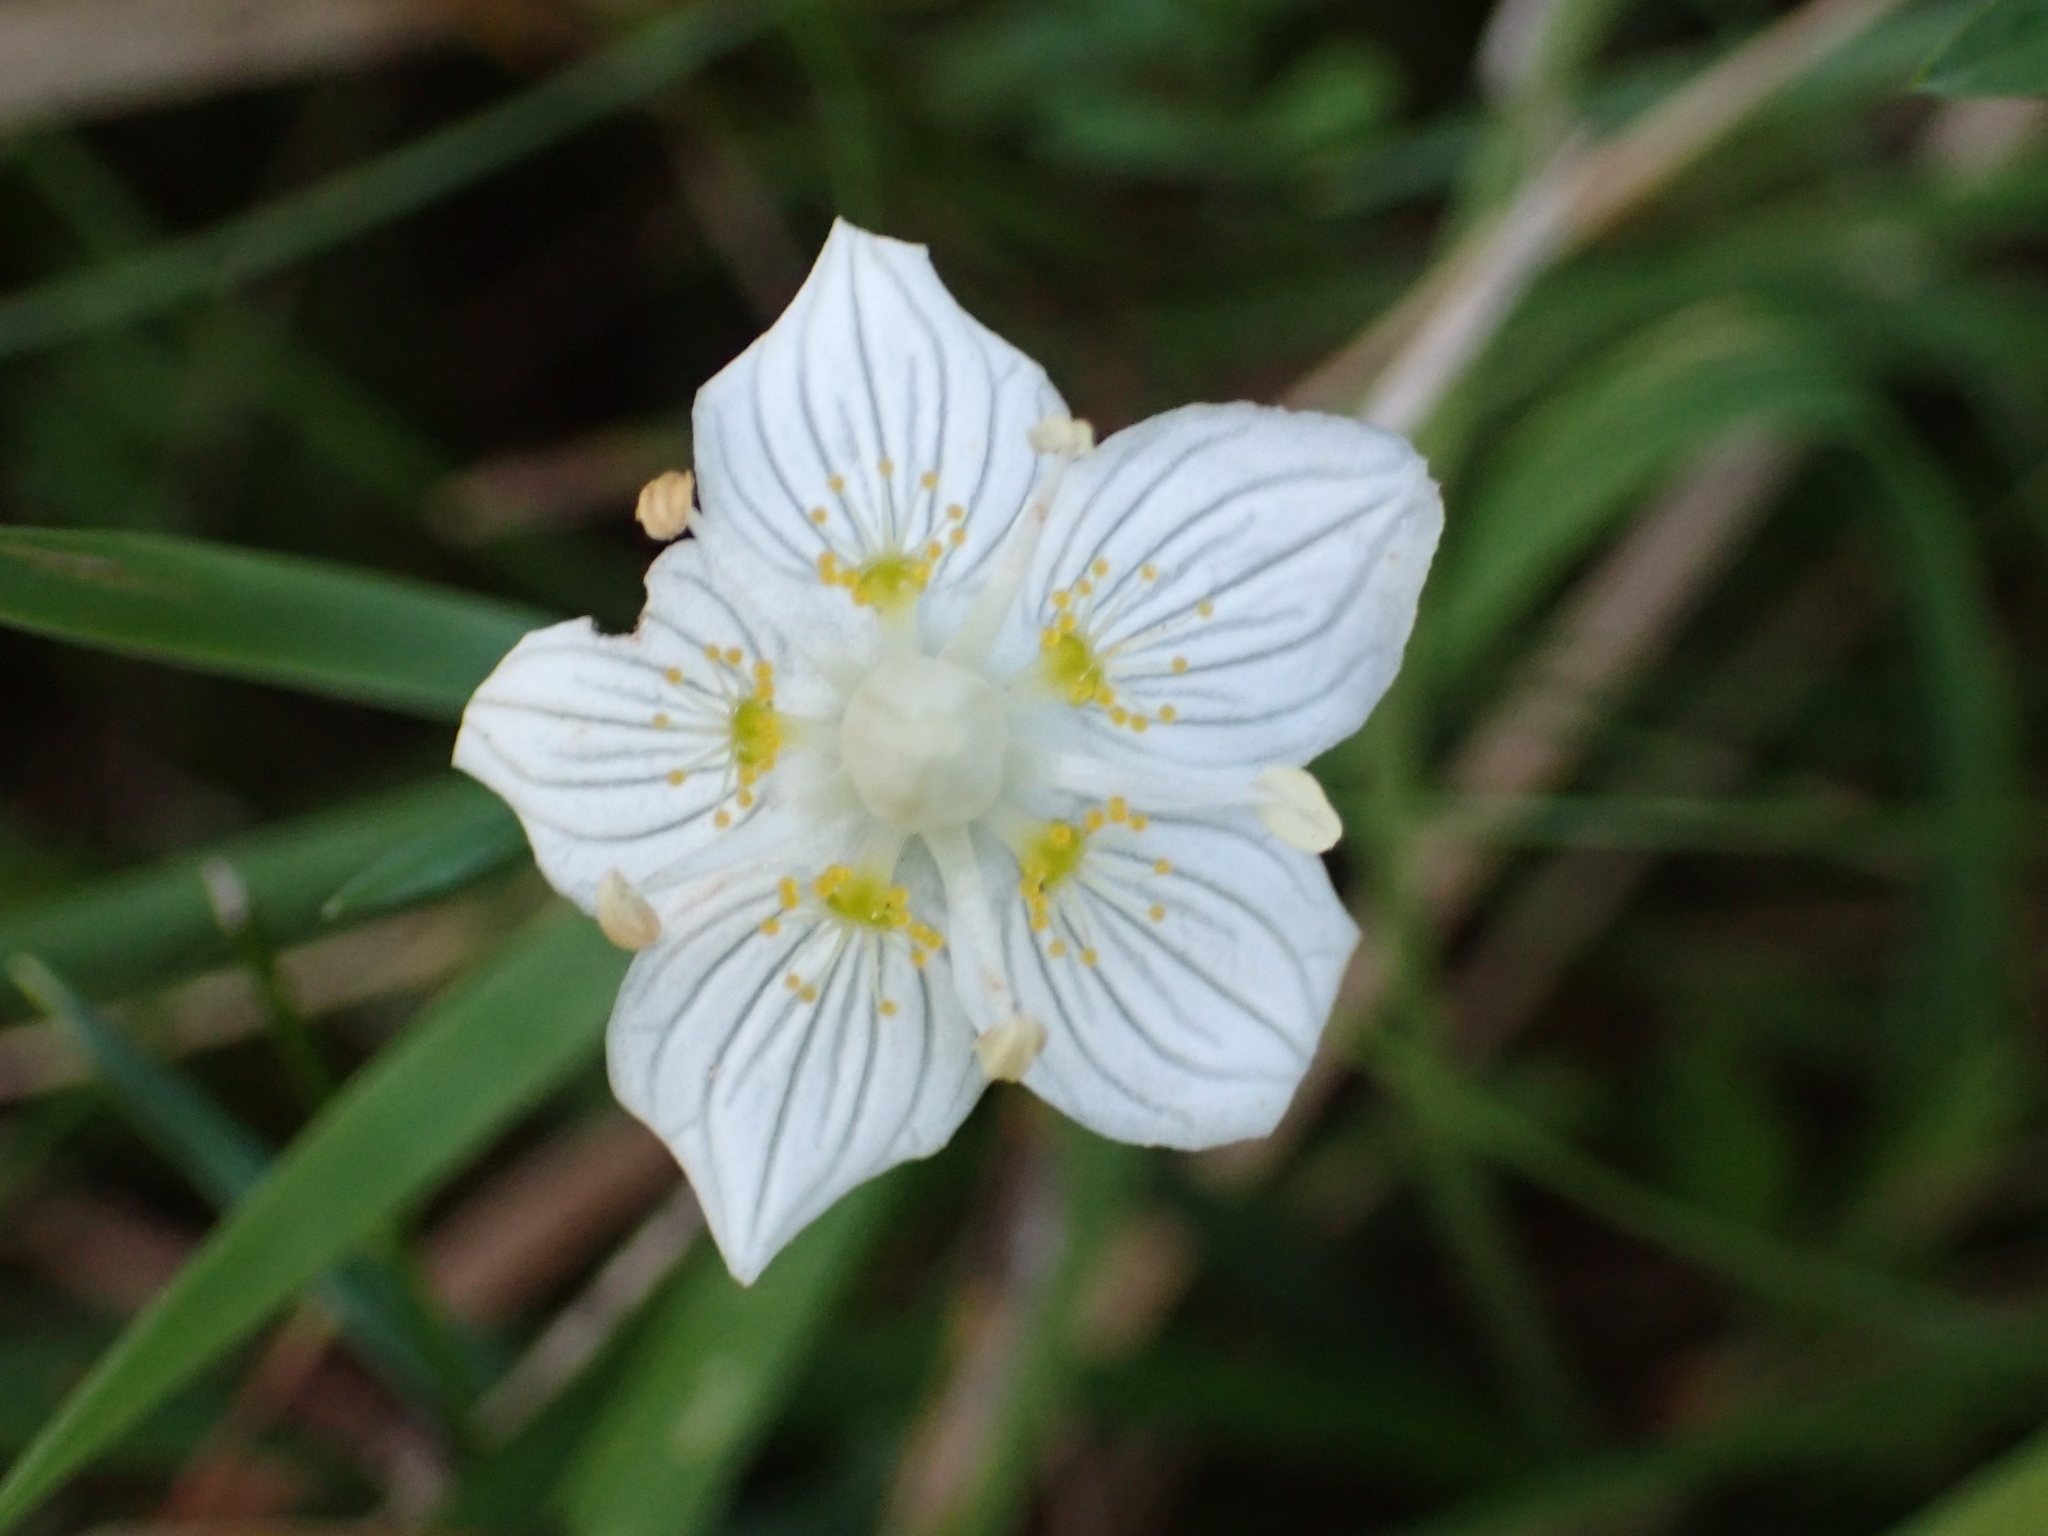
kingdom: Plantae
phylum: Tracheophyta
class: Magnoliopsida
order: Celastrales
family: Parnassiaceae
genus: Parnassia
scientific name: Parnassia palustris
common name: Grass-of-parnassus
